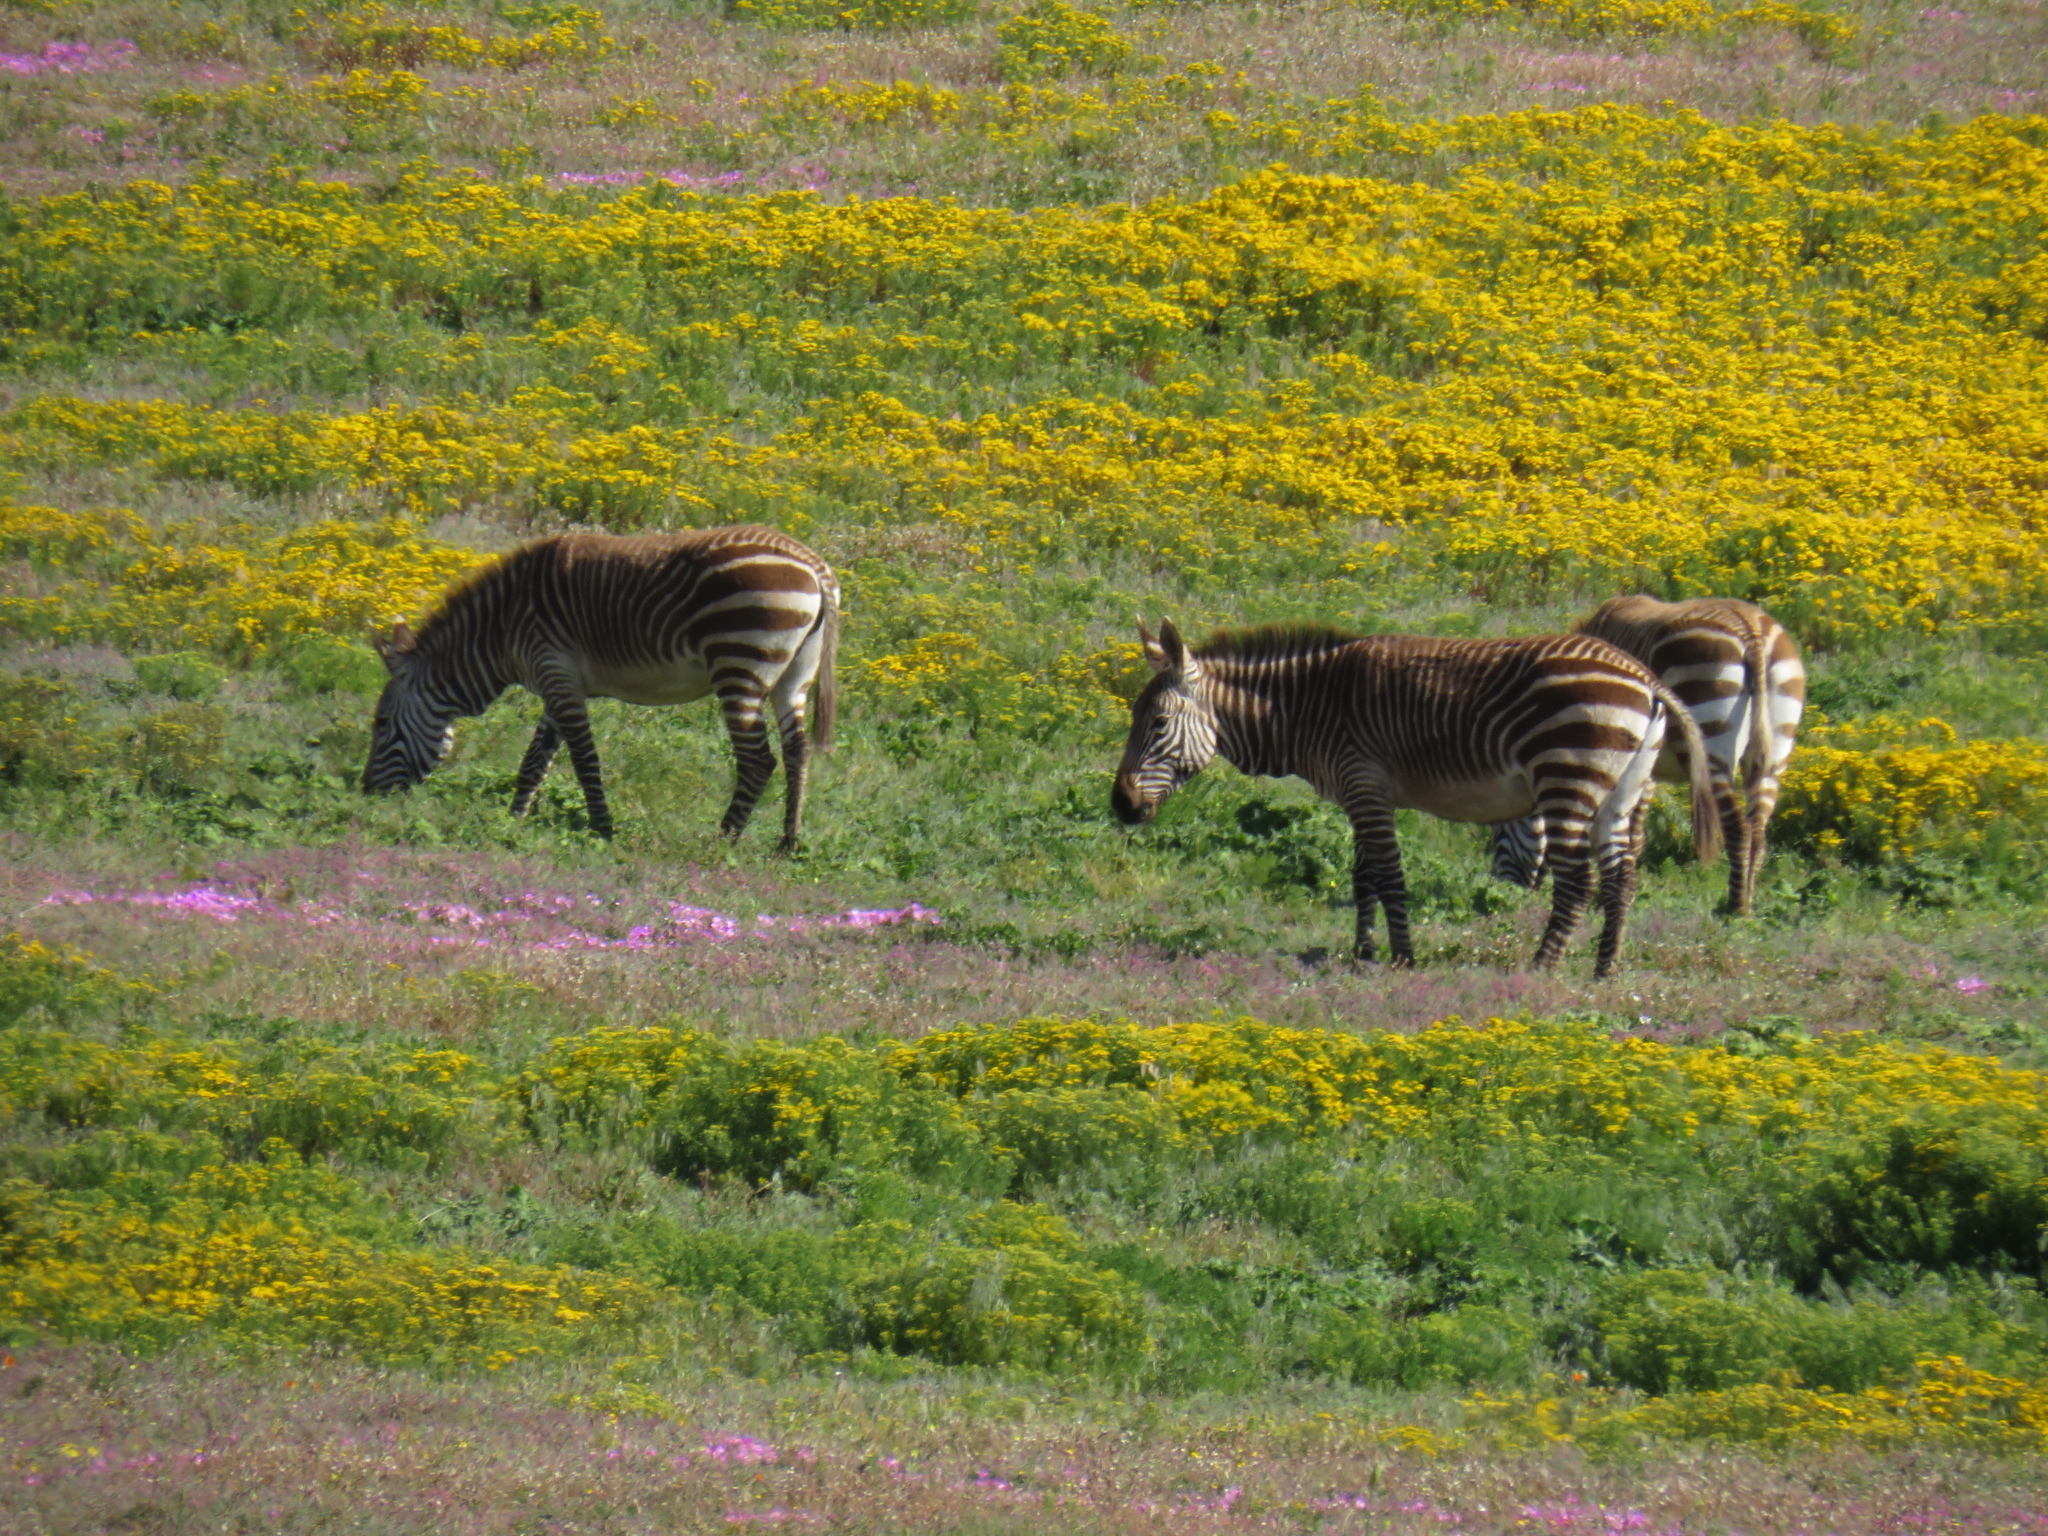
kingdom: Animalia
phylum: Chordata
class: Mammalia
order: Perissodactyla
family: Equidae
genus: Equus
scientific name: Equus zebra
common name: Mountain zebra
